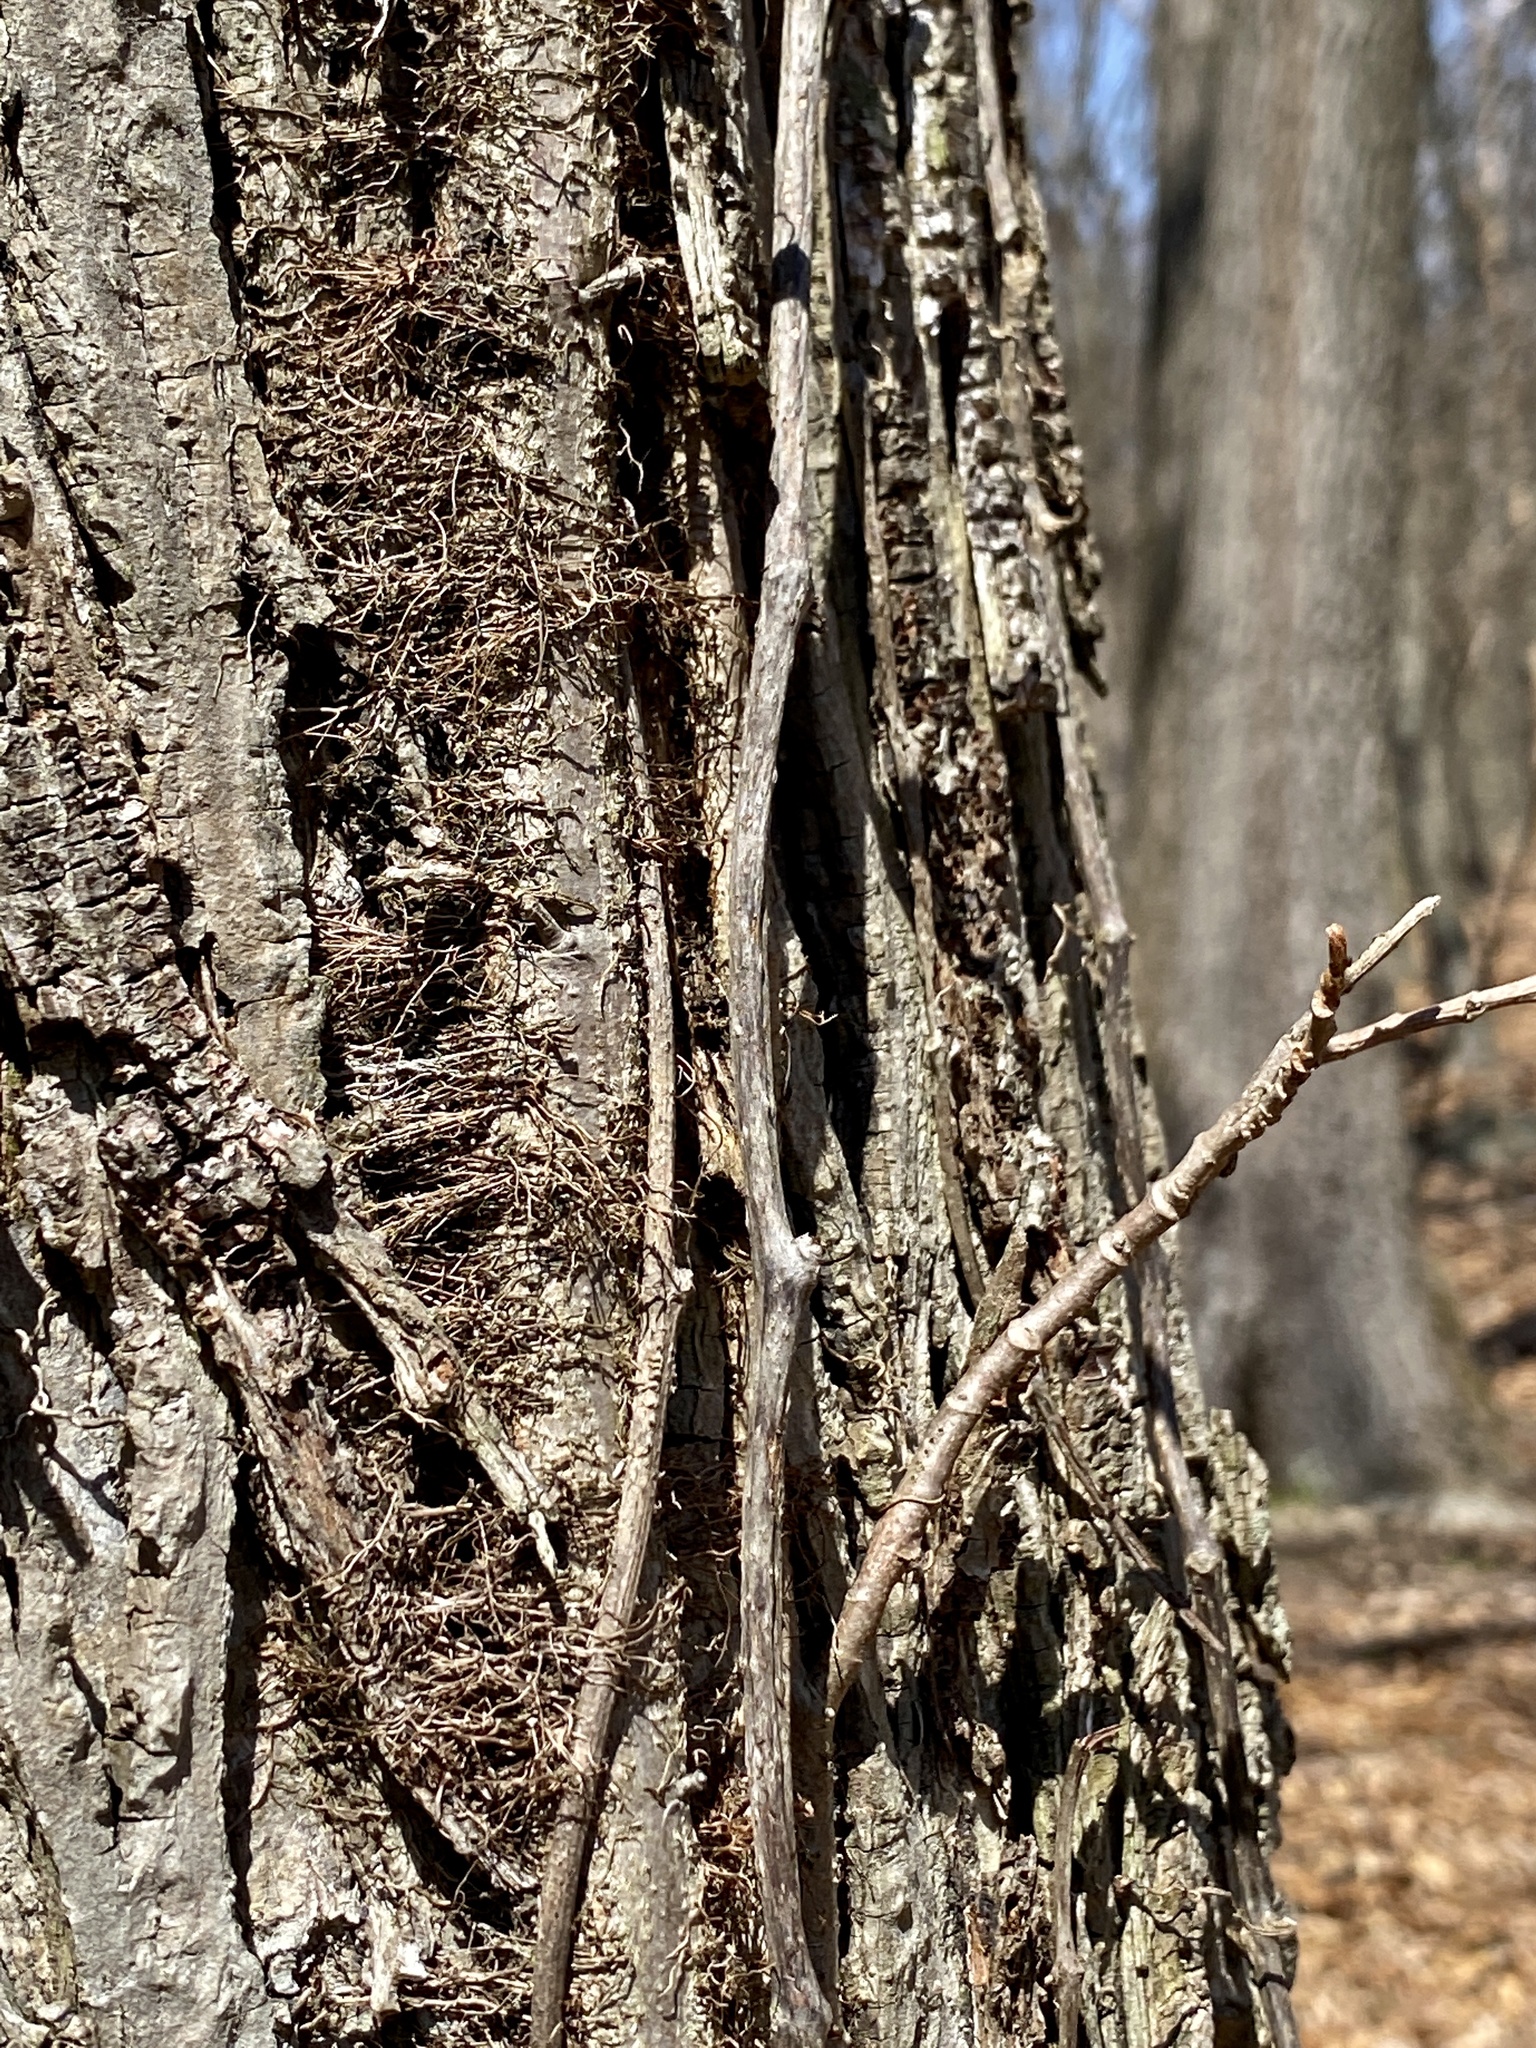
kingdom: Plantae
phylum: Tracheophyta
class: Magnoliopsida
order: Sapindales
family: Anacardiaceae
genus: Toxicodendron
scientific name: Toxicodendron radicans
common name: Poison ivy
